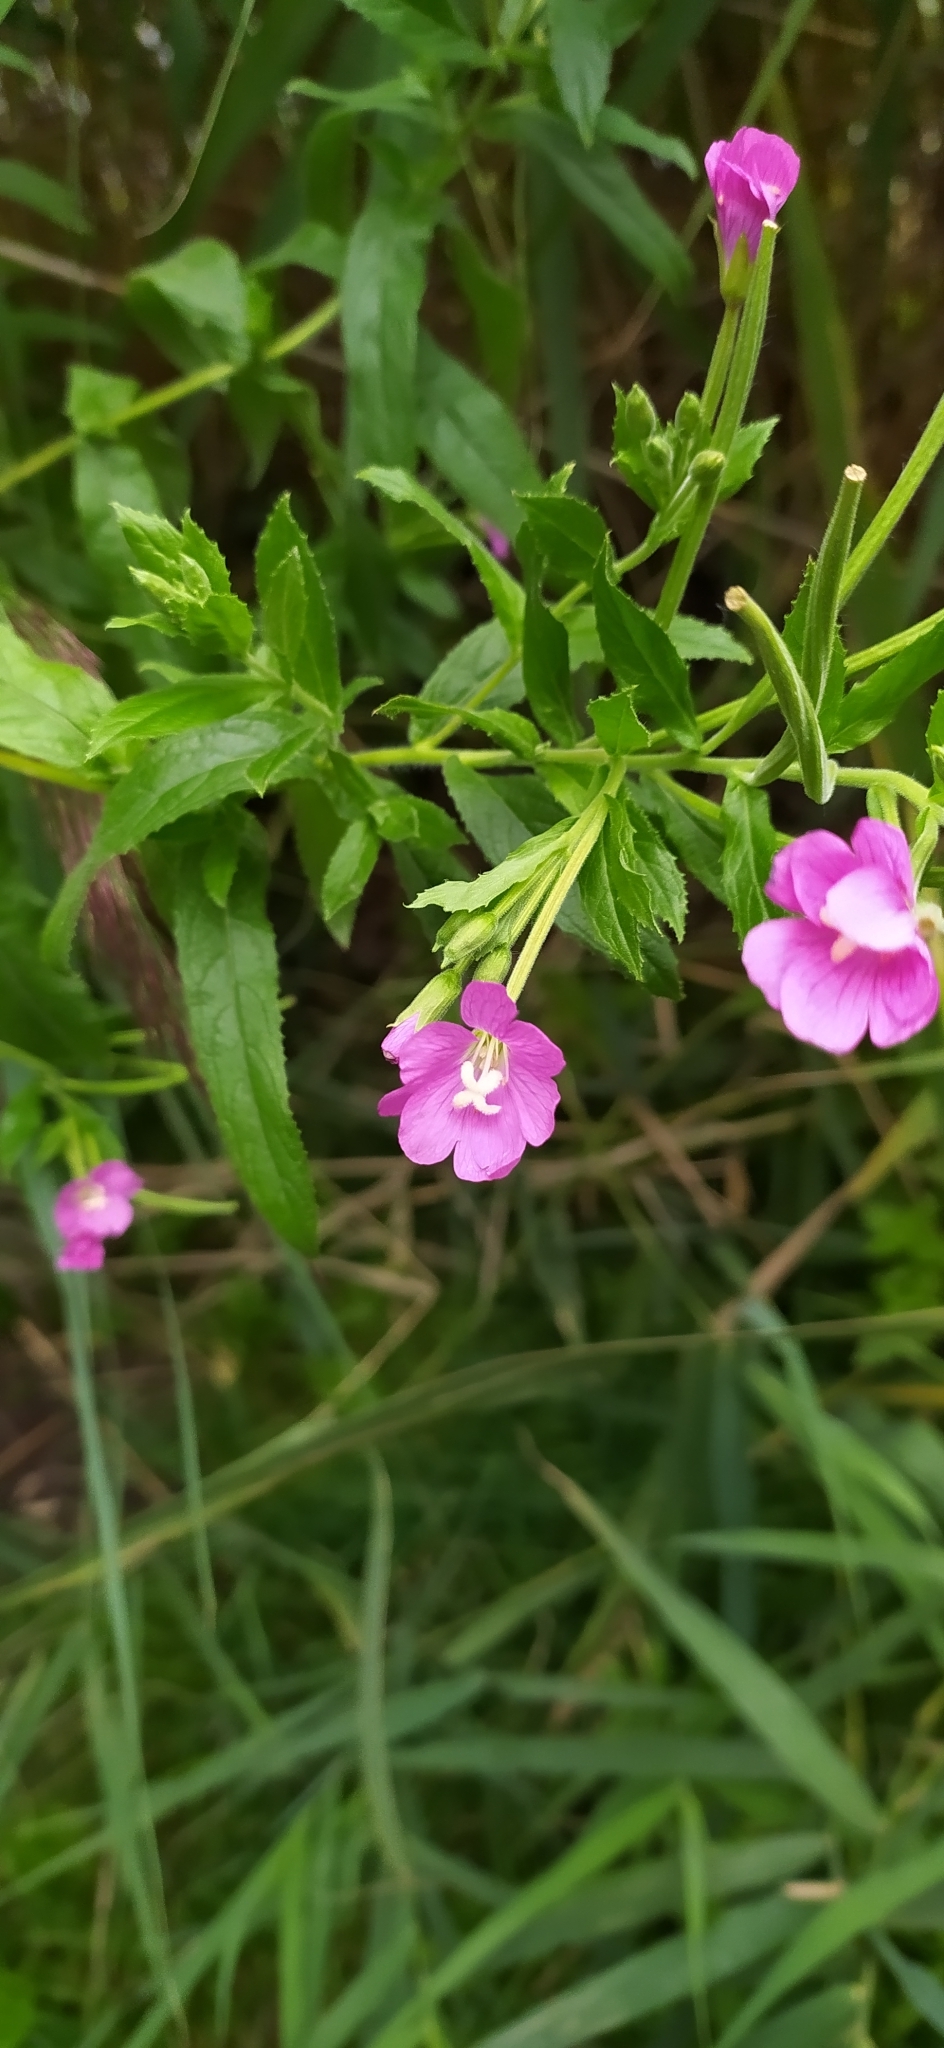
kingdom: Plantae
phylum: Tracheophyta
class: Magnoliopsida
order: Myrtales
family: Onagraceae
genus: Epilobium
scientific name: Epilobium hirsutum
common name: Great willowherb
